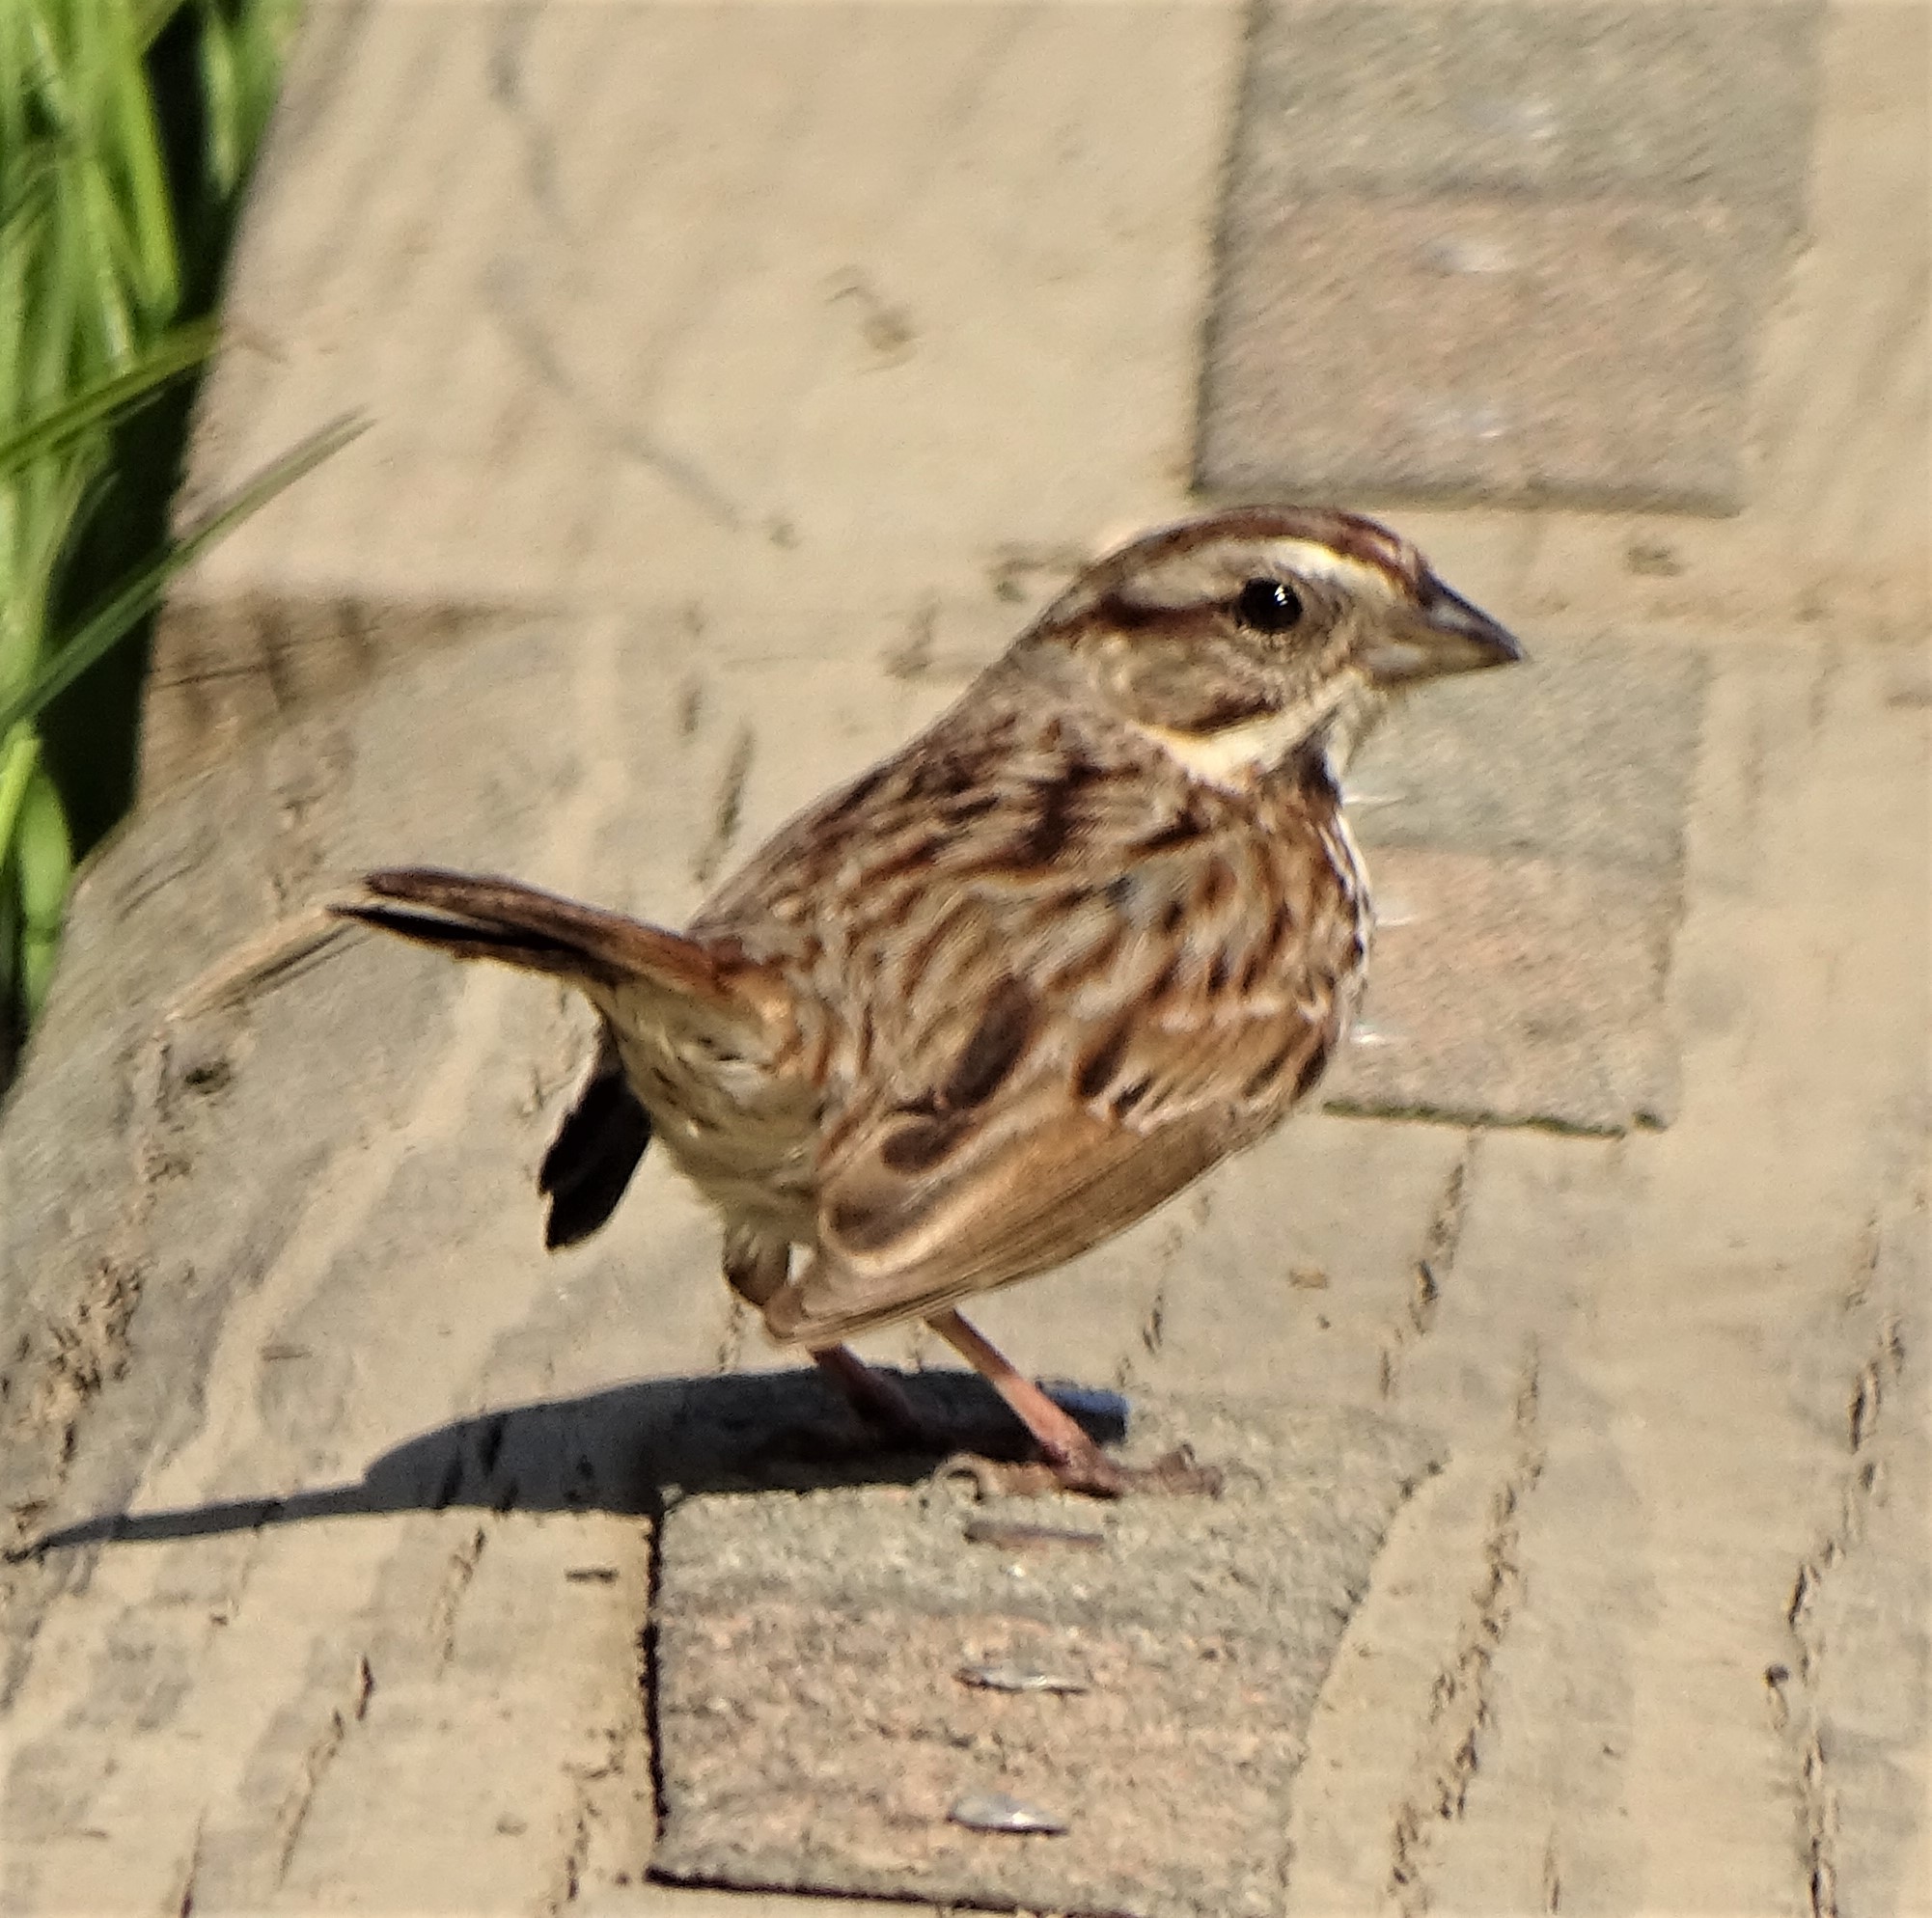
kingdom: Animalia
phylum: Chordata
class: Aves
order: Passeriformes
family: Passerellidae
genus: Melospiza
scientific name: Melospiza melodia
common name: Song sparrow
